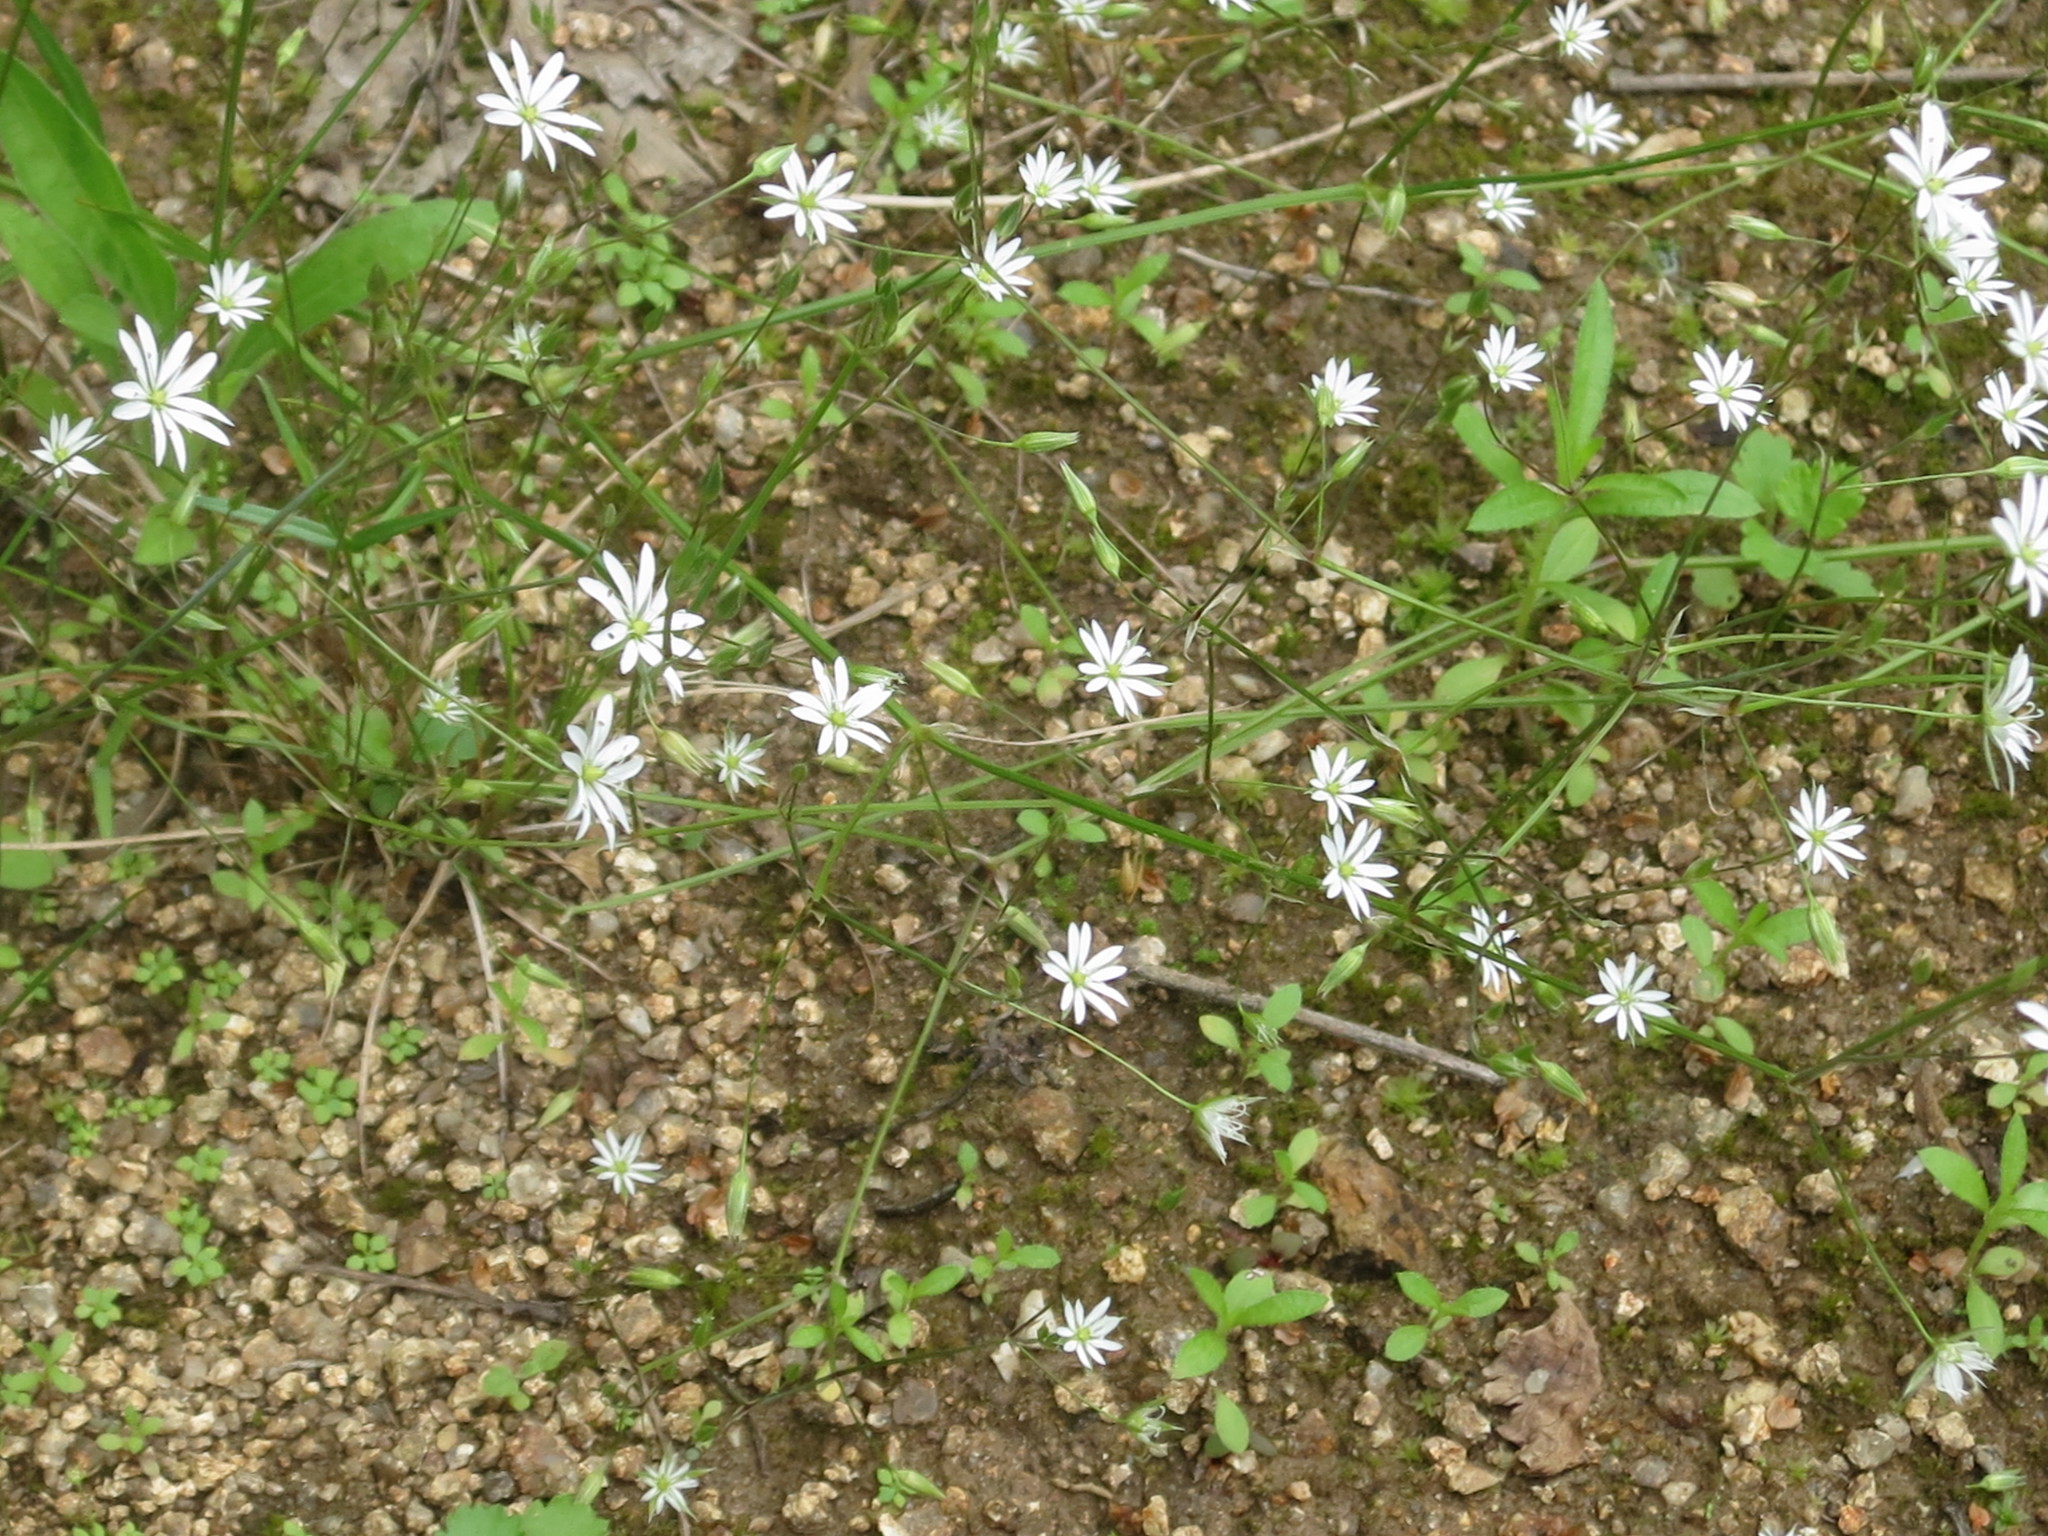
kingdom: Plantae
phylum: Tracheophyta
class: Magnoliopsida
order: Caryophyllales
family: Caryophyllaceae
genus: Stellaria
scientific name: Stellaria graminea
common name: Grass-like starwort
